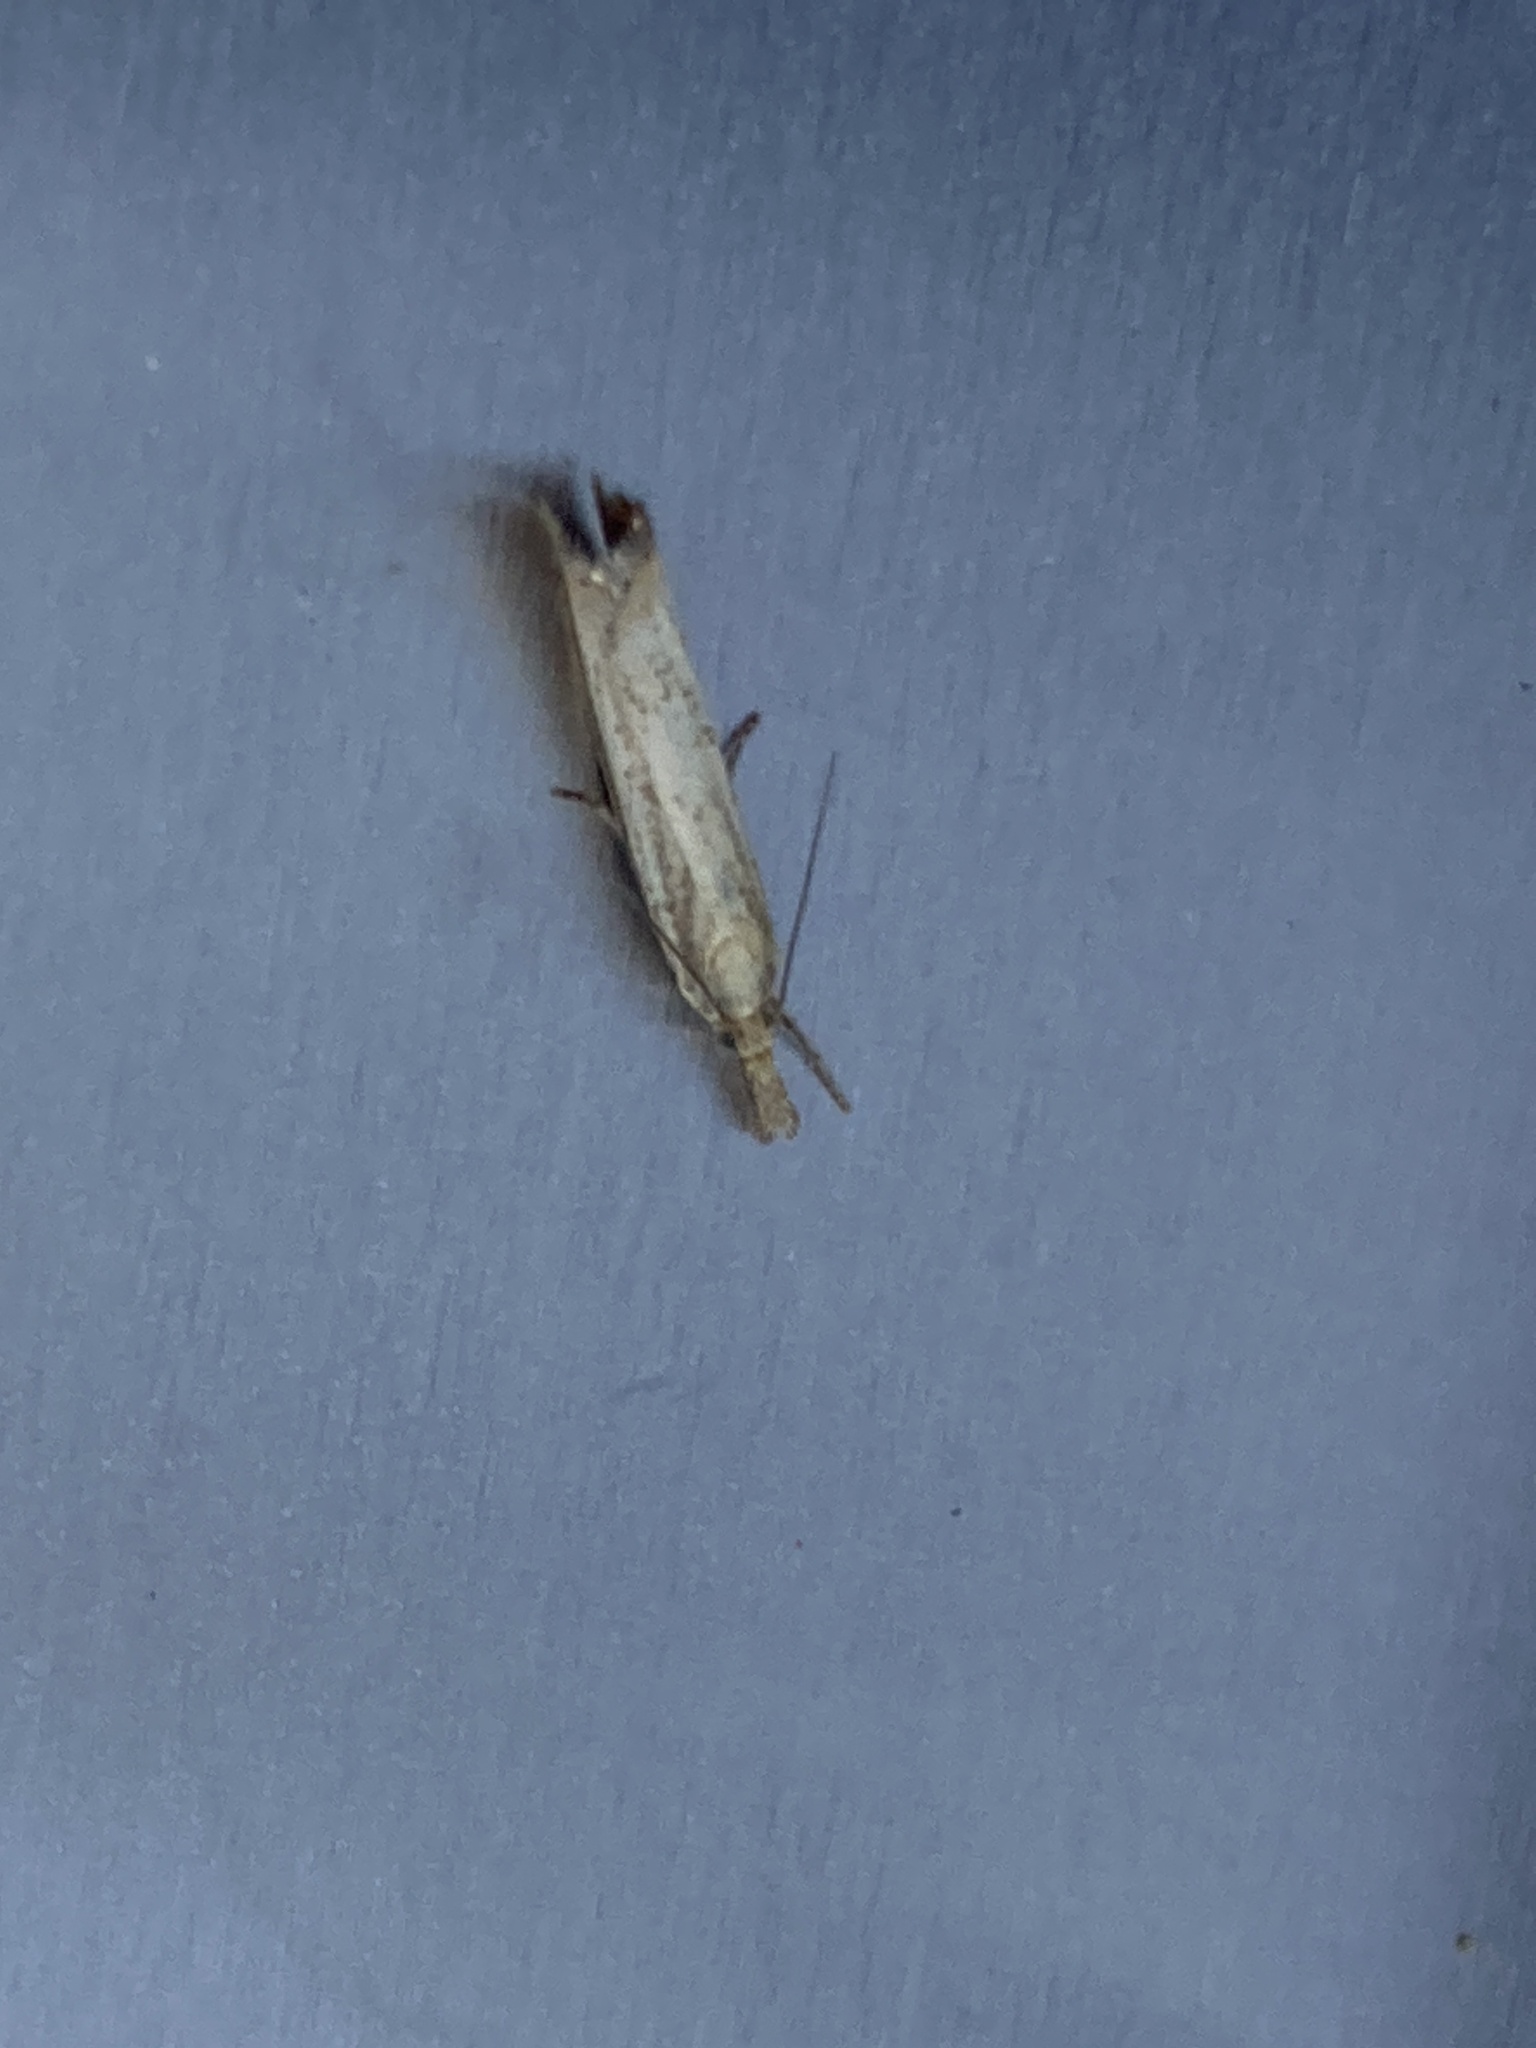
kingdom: Animalia
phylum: Arthropoda
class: Insecta
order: Lepidoptera
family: Crambidae
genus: Agriphila
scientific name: Agriphila straminella
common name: Straw grass-veneer
